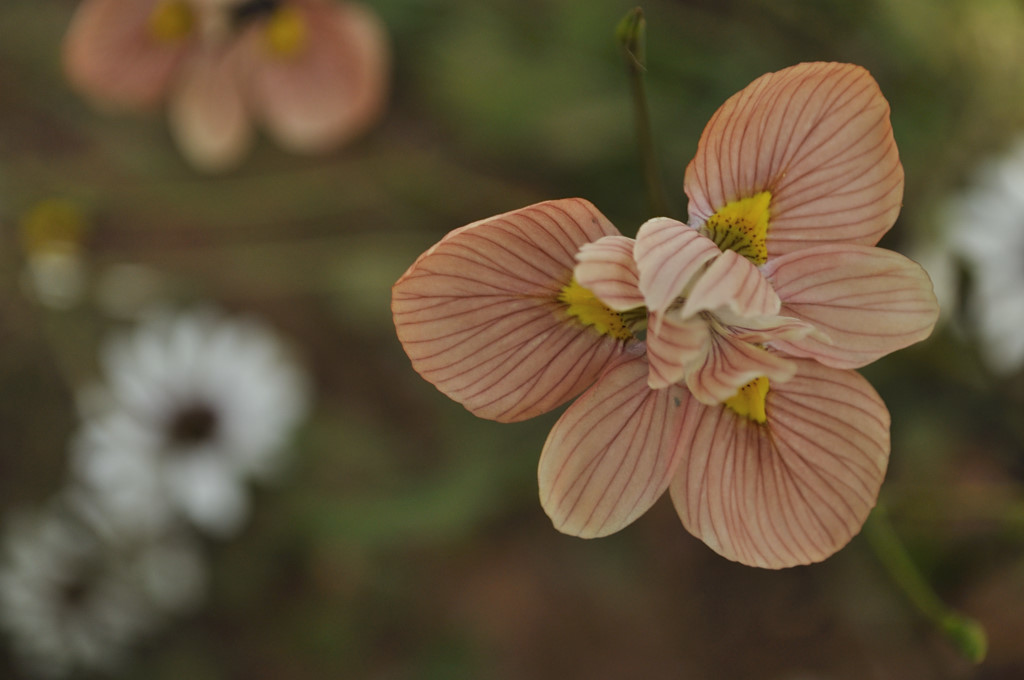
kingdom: Plantae
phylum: Tracheophyta
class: Liliopsida
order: Asparagales
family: Iridaceae
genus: Moraea
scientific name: Moraea gawleri
